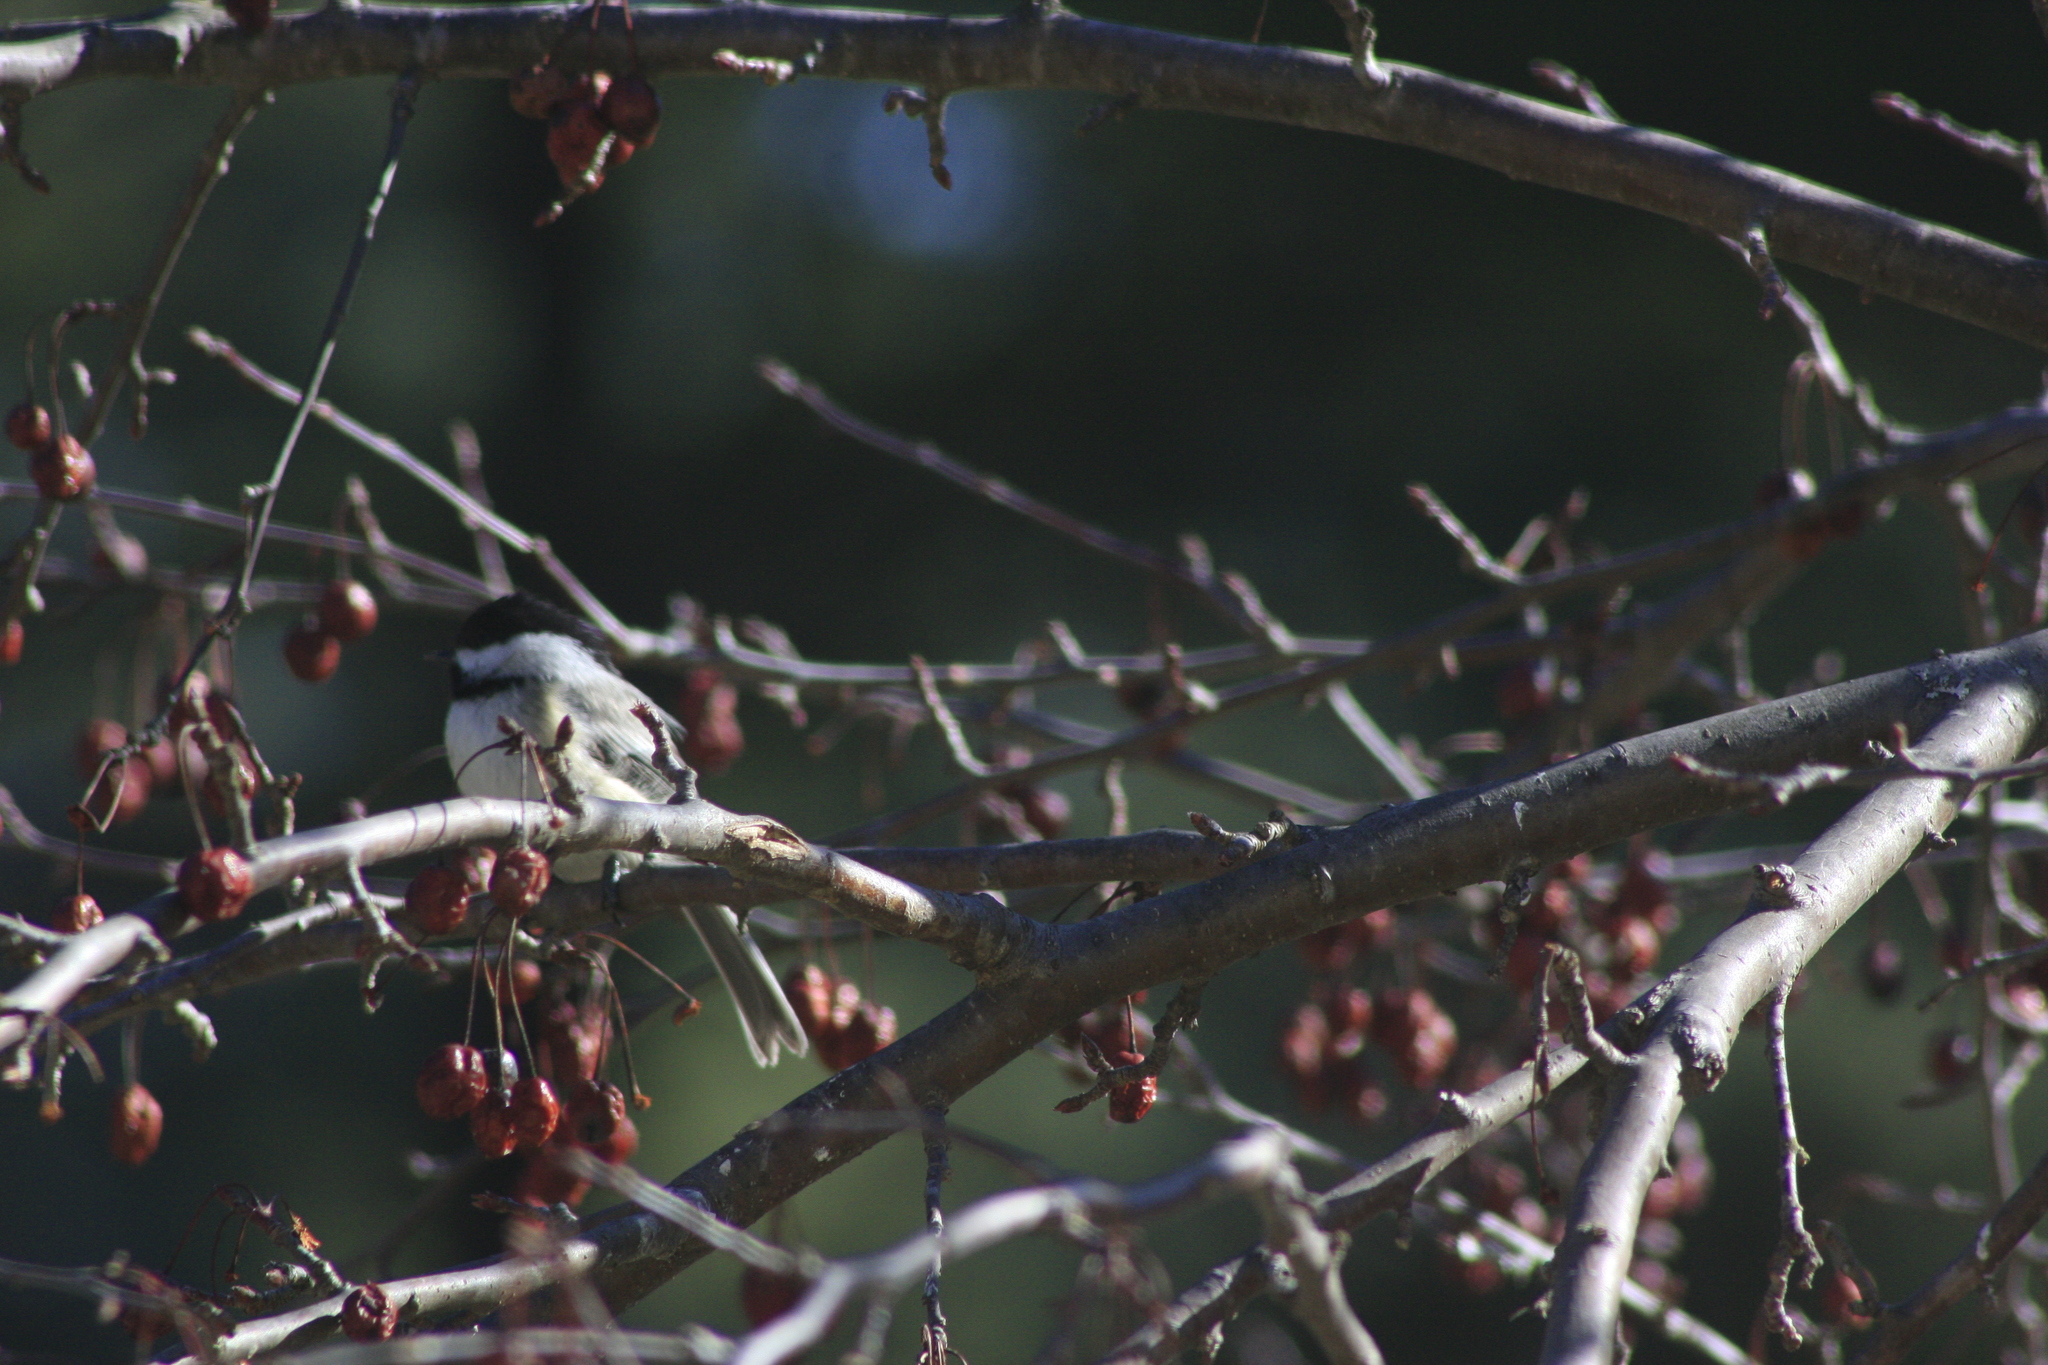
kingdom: Animalia
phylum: Chordata
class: Aves
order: Passeriformes
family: Paridae
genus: Poecile
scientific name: Poecile atricapillus
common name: Black-capped chickadee
